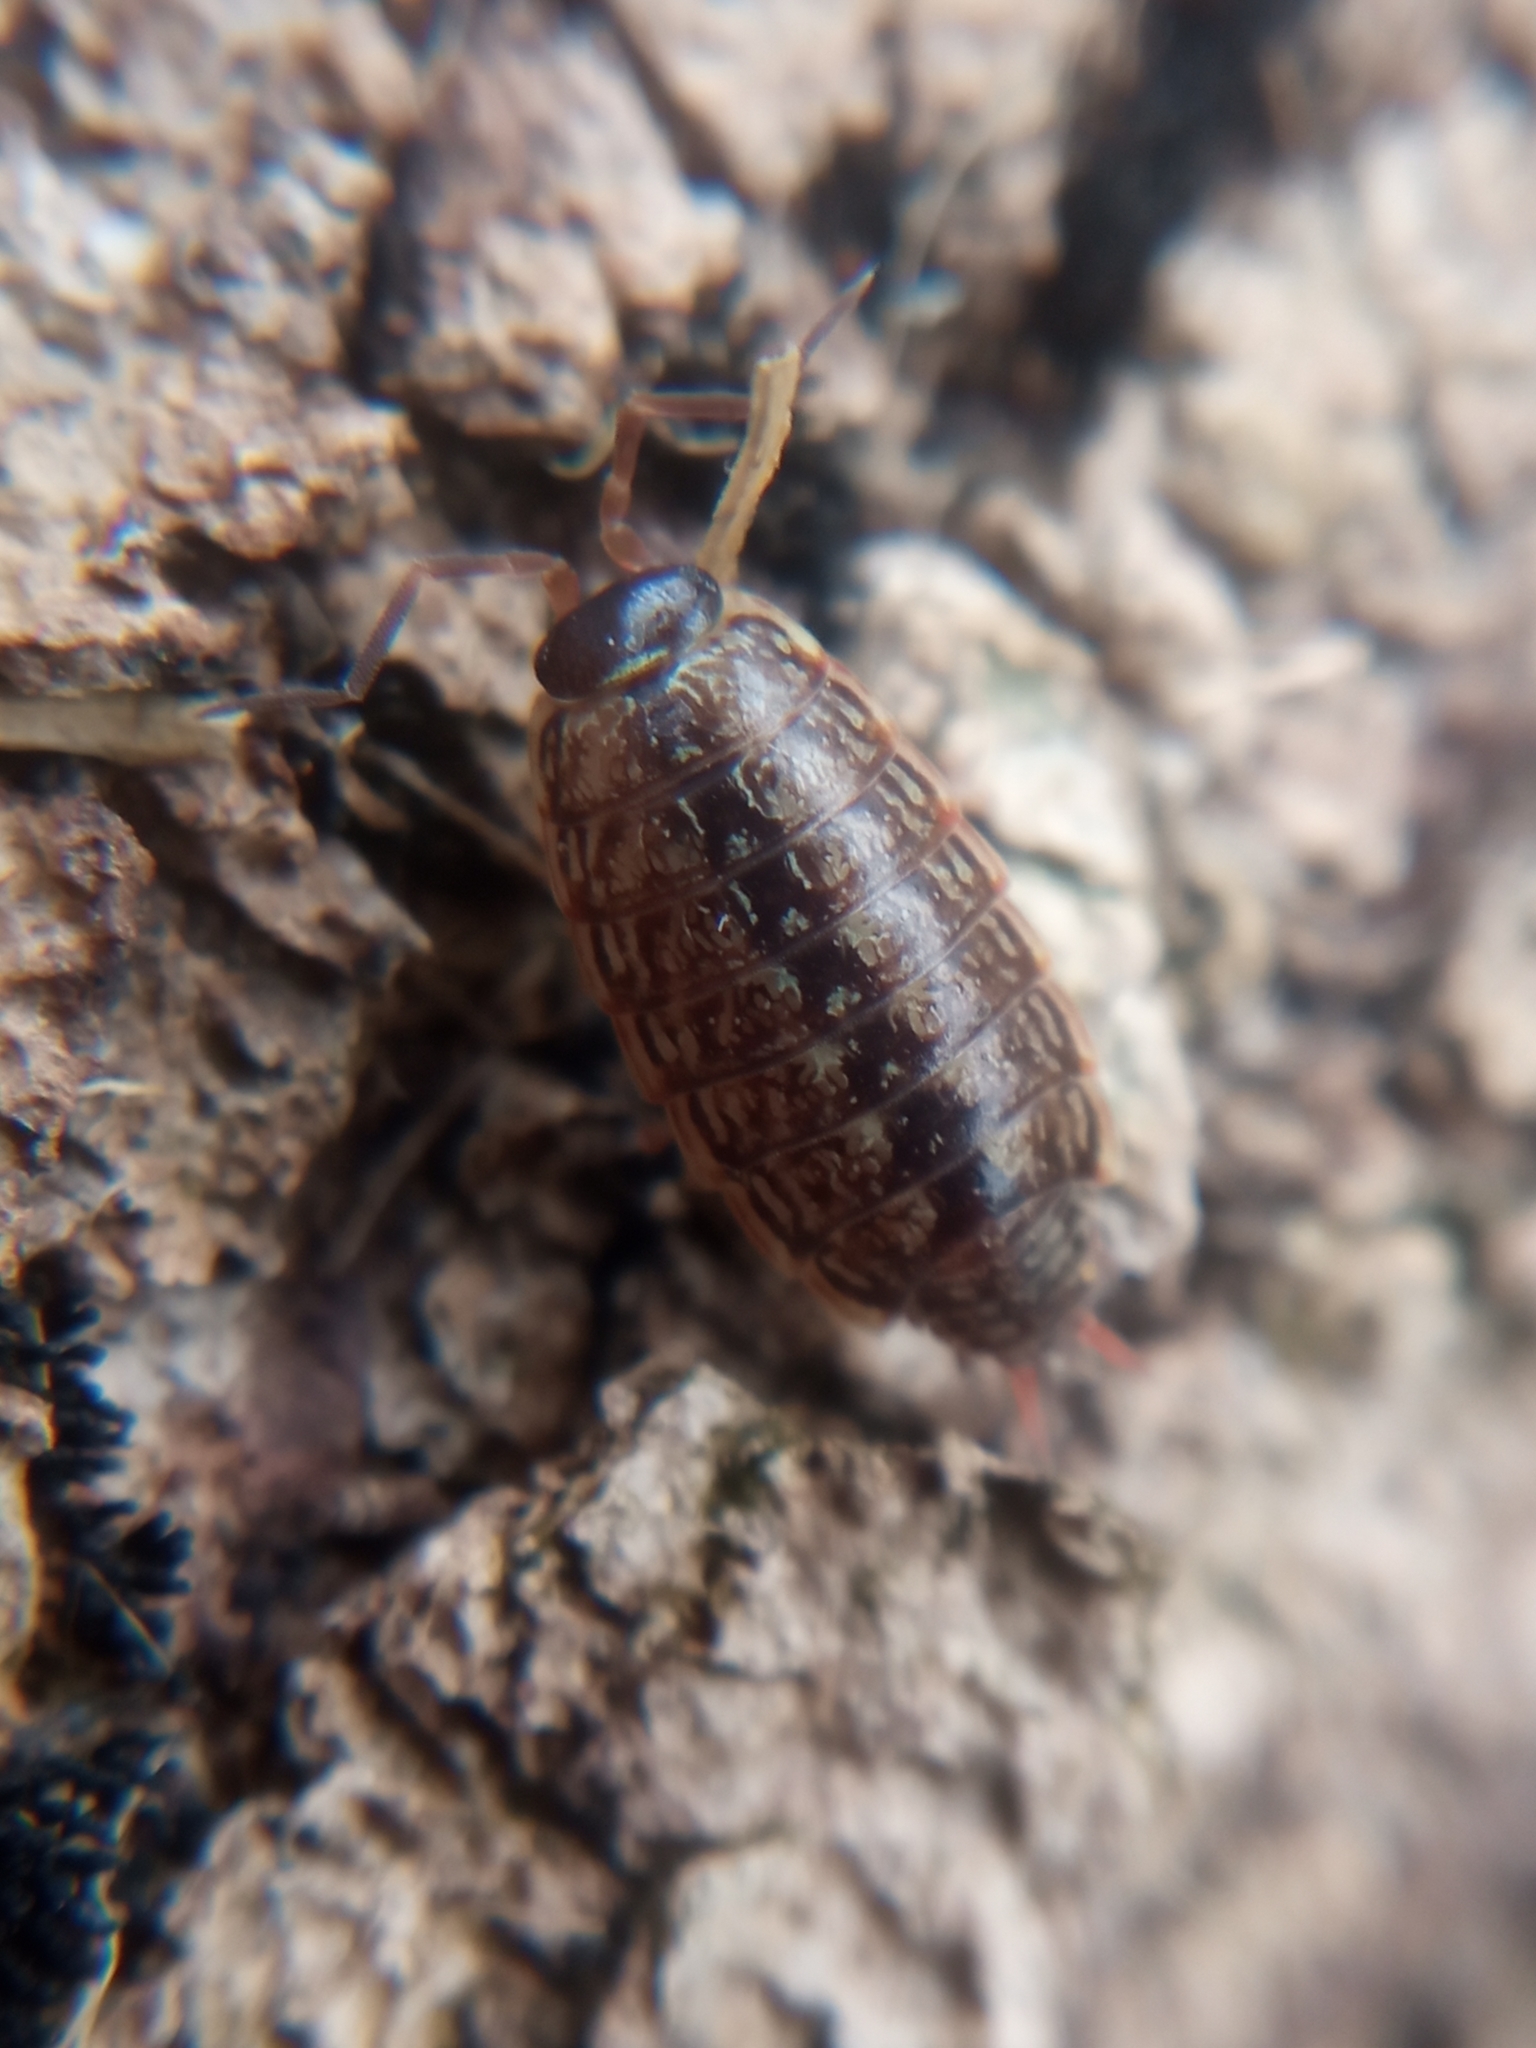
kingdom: Animalia
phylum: Arthropoda
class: Malacostraca
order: Isopoda
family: Philosciidae
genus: Philoscia
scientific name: Philoscia muscorum
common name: Common striped woodlouse
